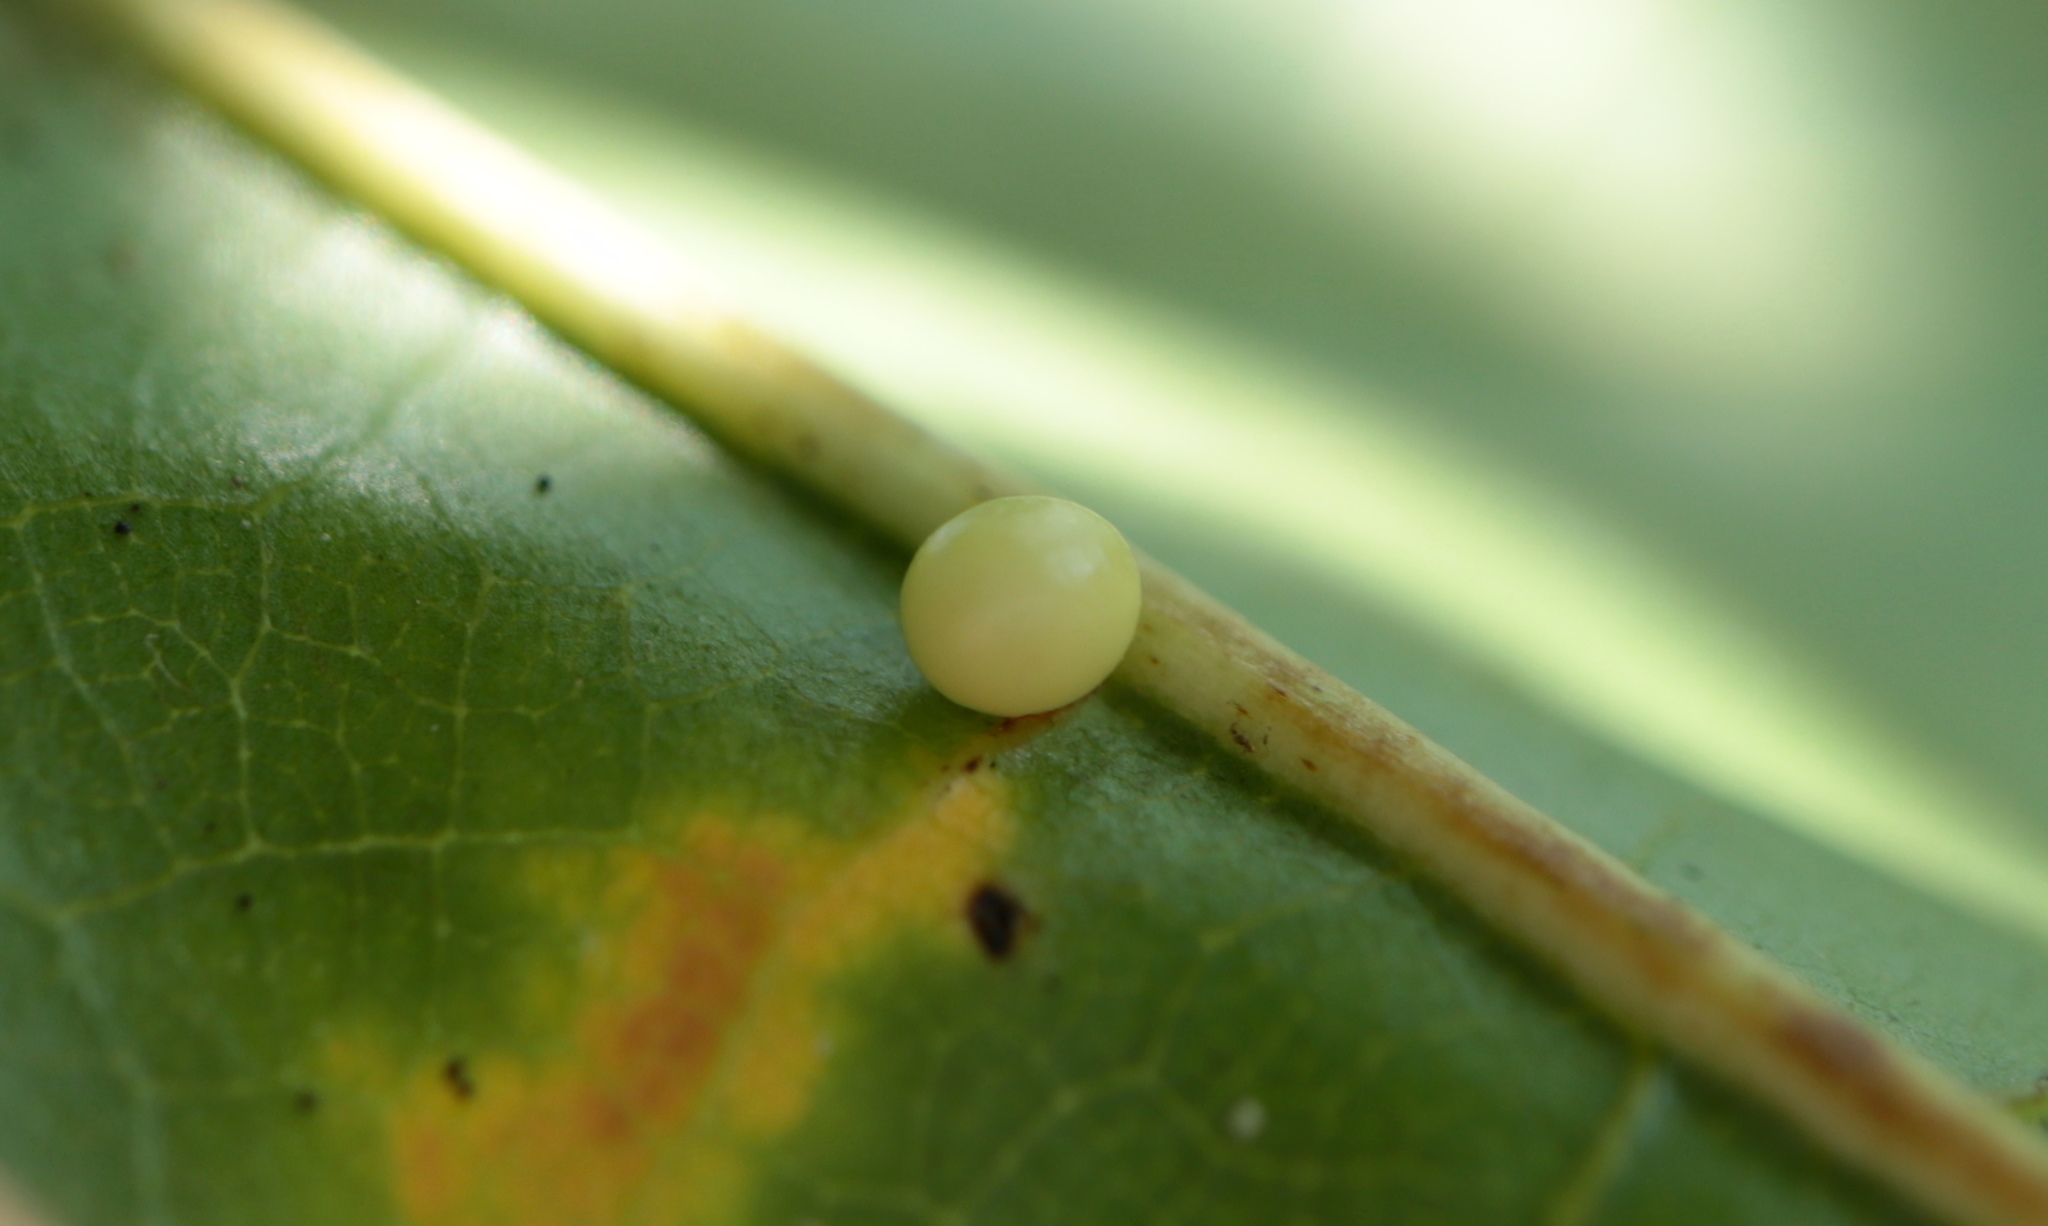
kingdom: Animalia
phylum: Arthropoda
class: Insecta
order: Hymenoptera
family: Cynipidae
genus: Zopheroteras
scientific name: Zopheroteras
